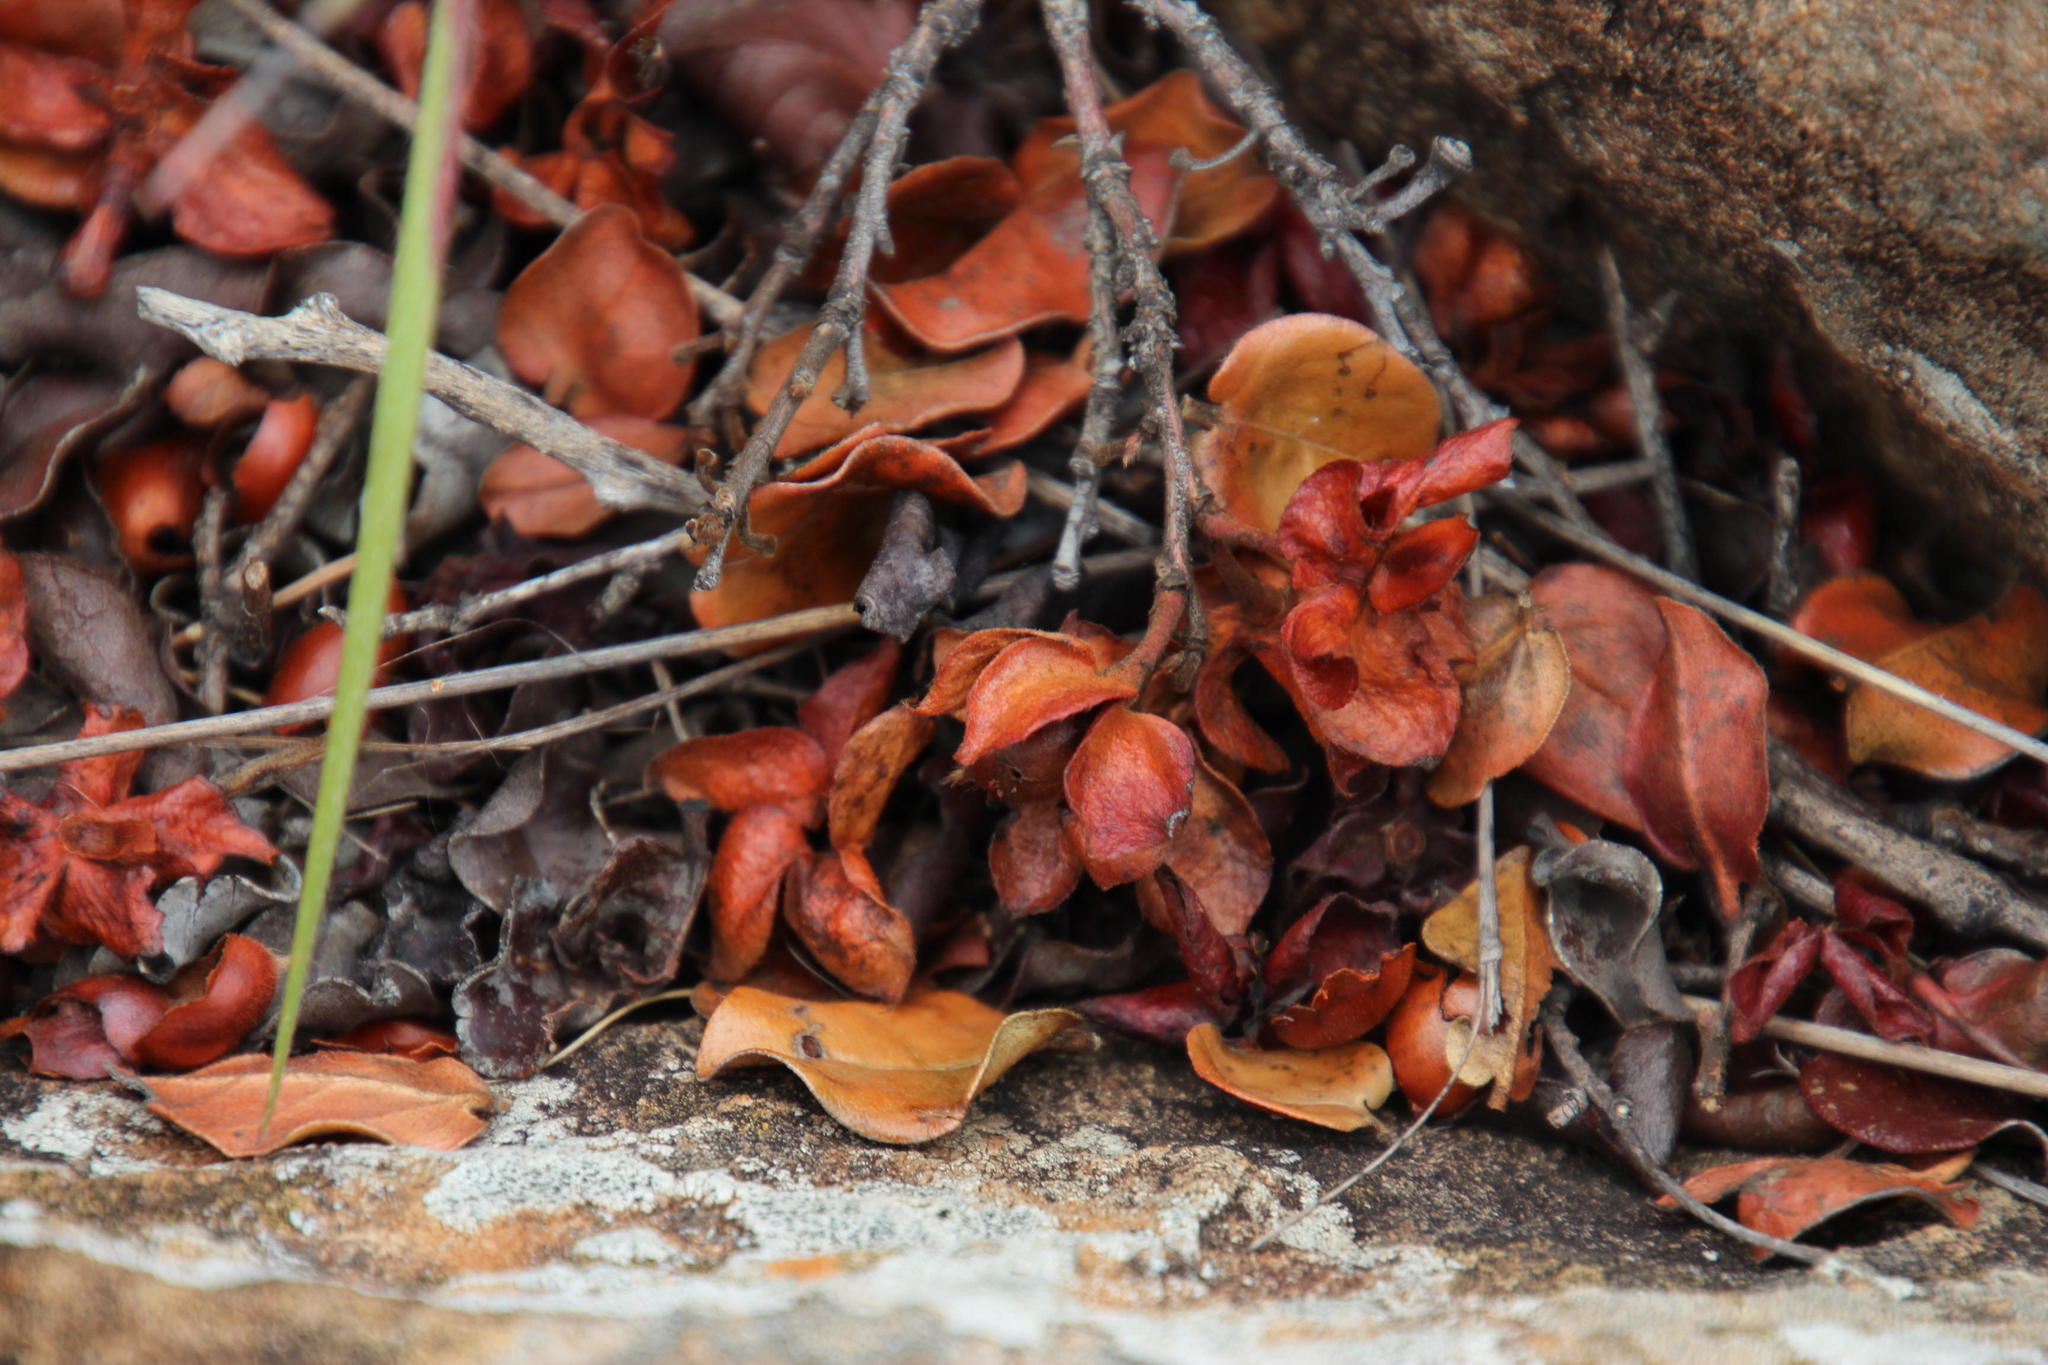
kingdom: Plantae
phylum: Tracheophyta
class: Magnoliopsida
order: Ericales
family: Ebenaceae
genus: Diospyros
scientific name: Diospyros scabrida
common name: Coastal bladder-nut
